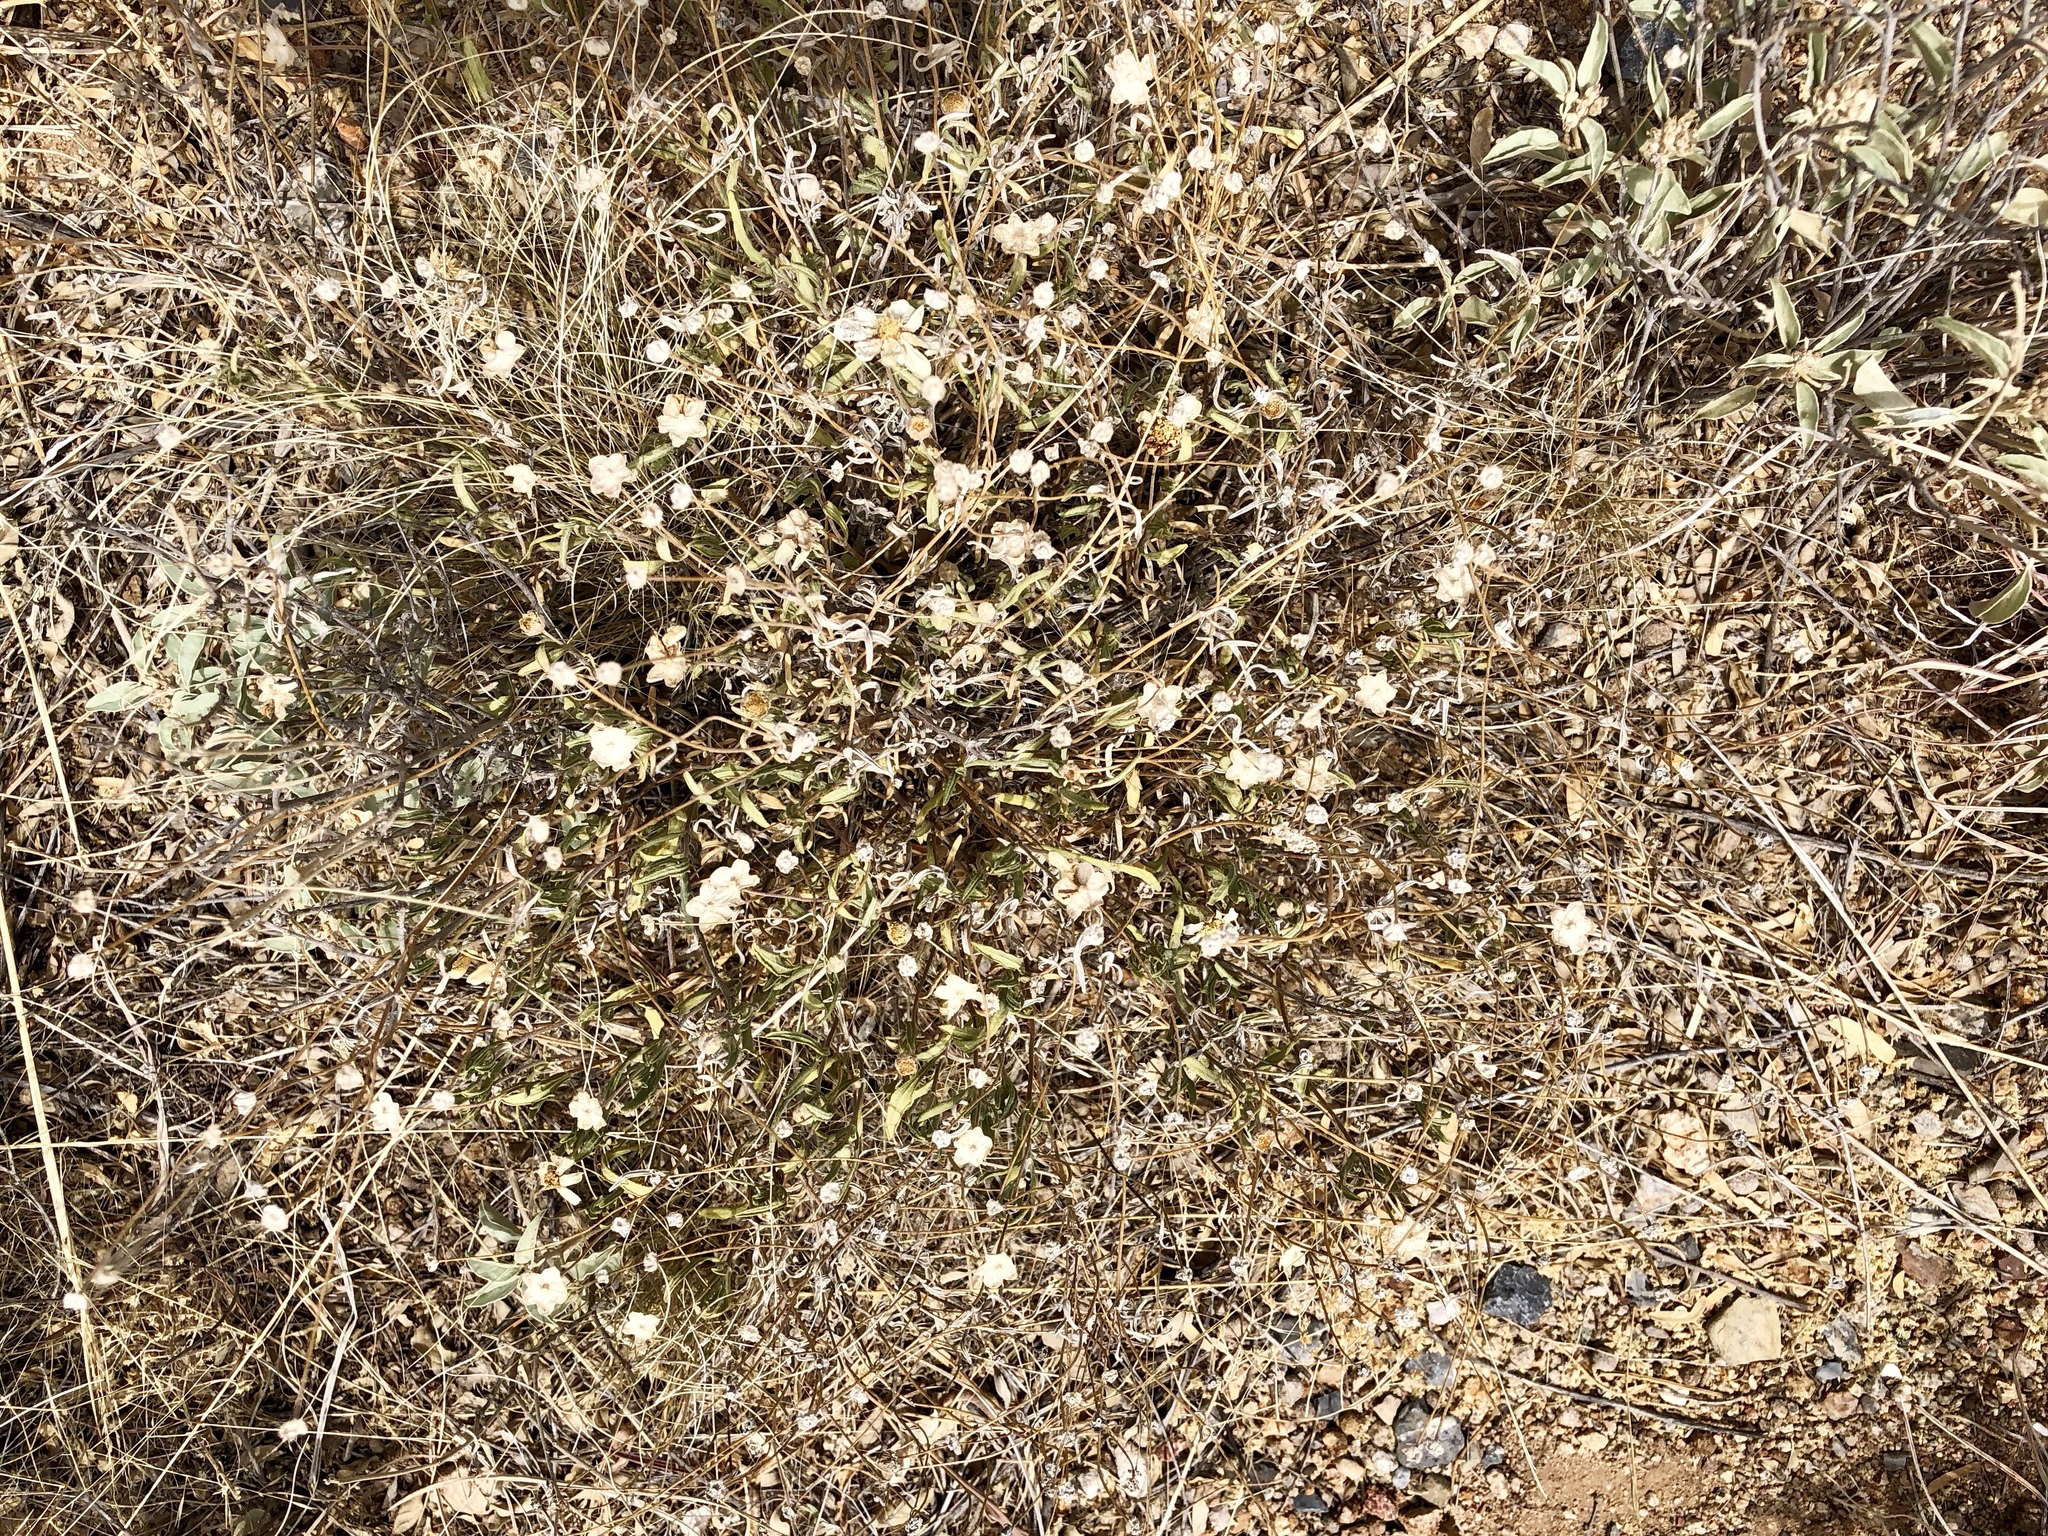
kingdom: Plantae
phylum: Tracheophyta
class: Magnoliopsida
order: Asterales
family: Asteraceae
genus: Melampodium
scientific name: Melampodium leucanthum
